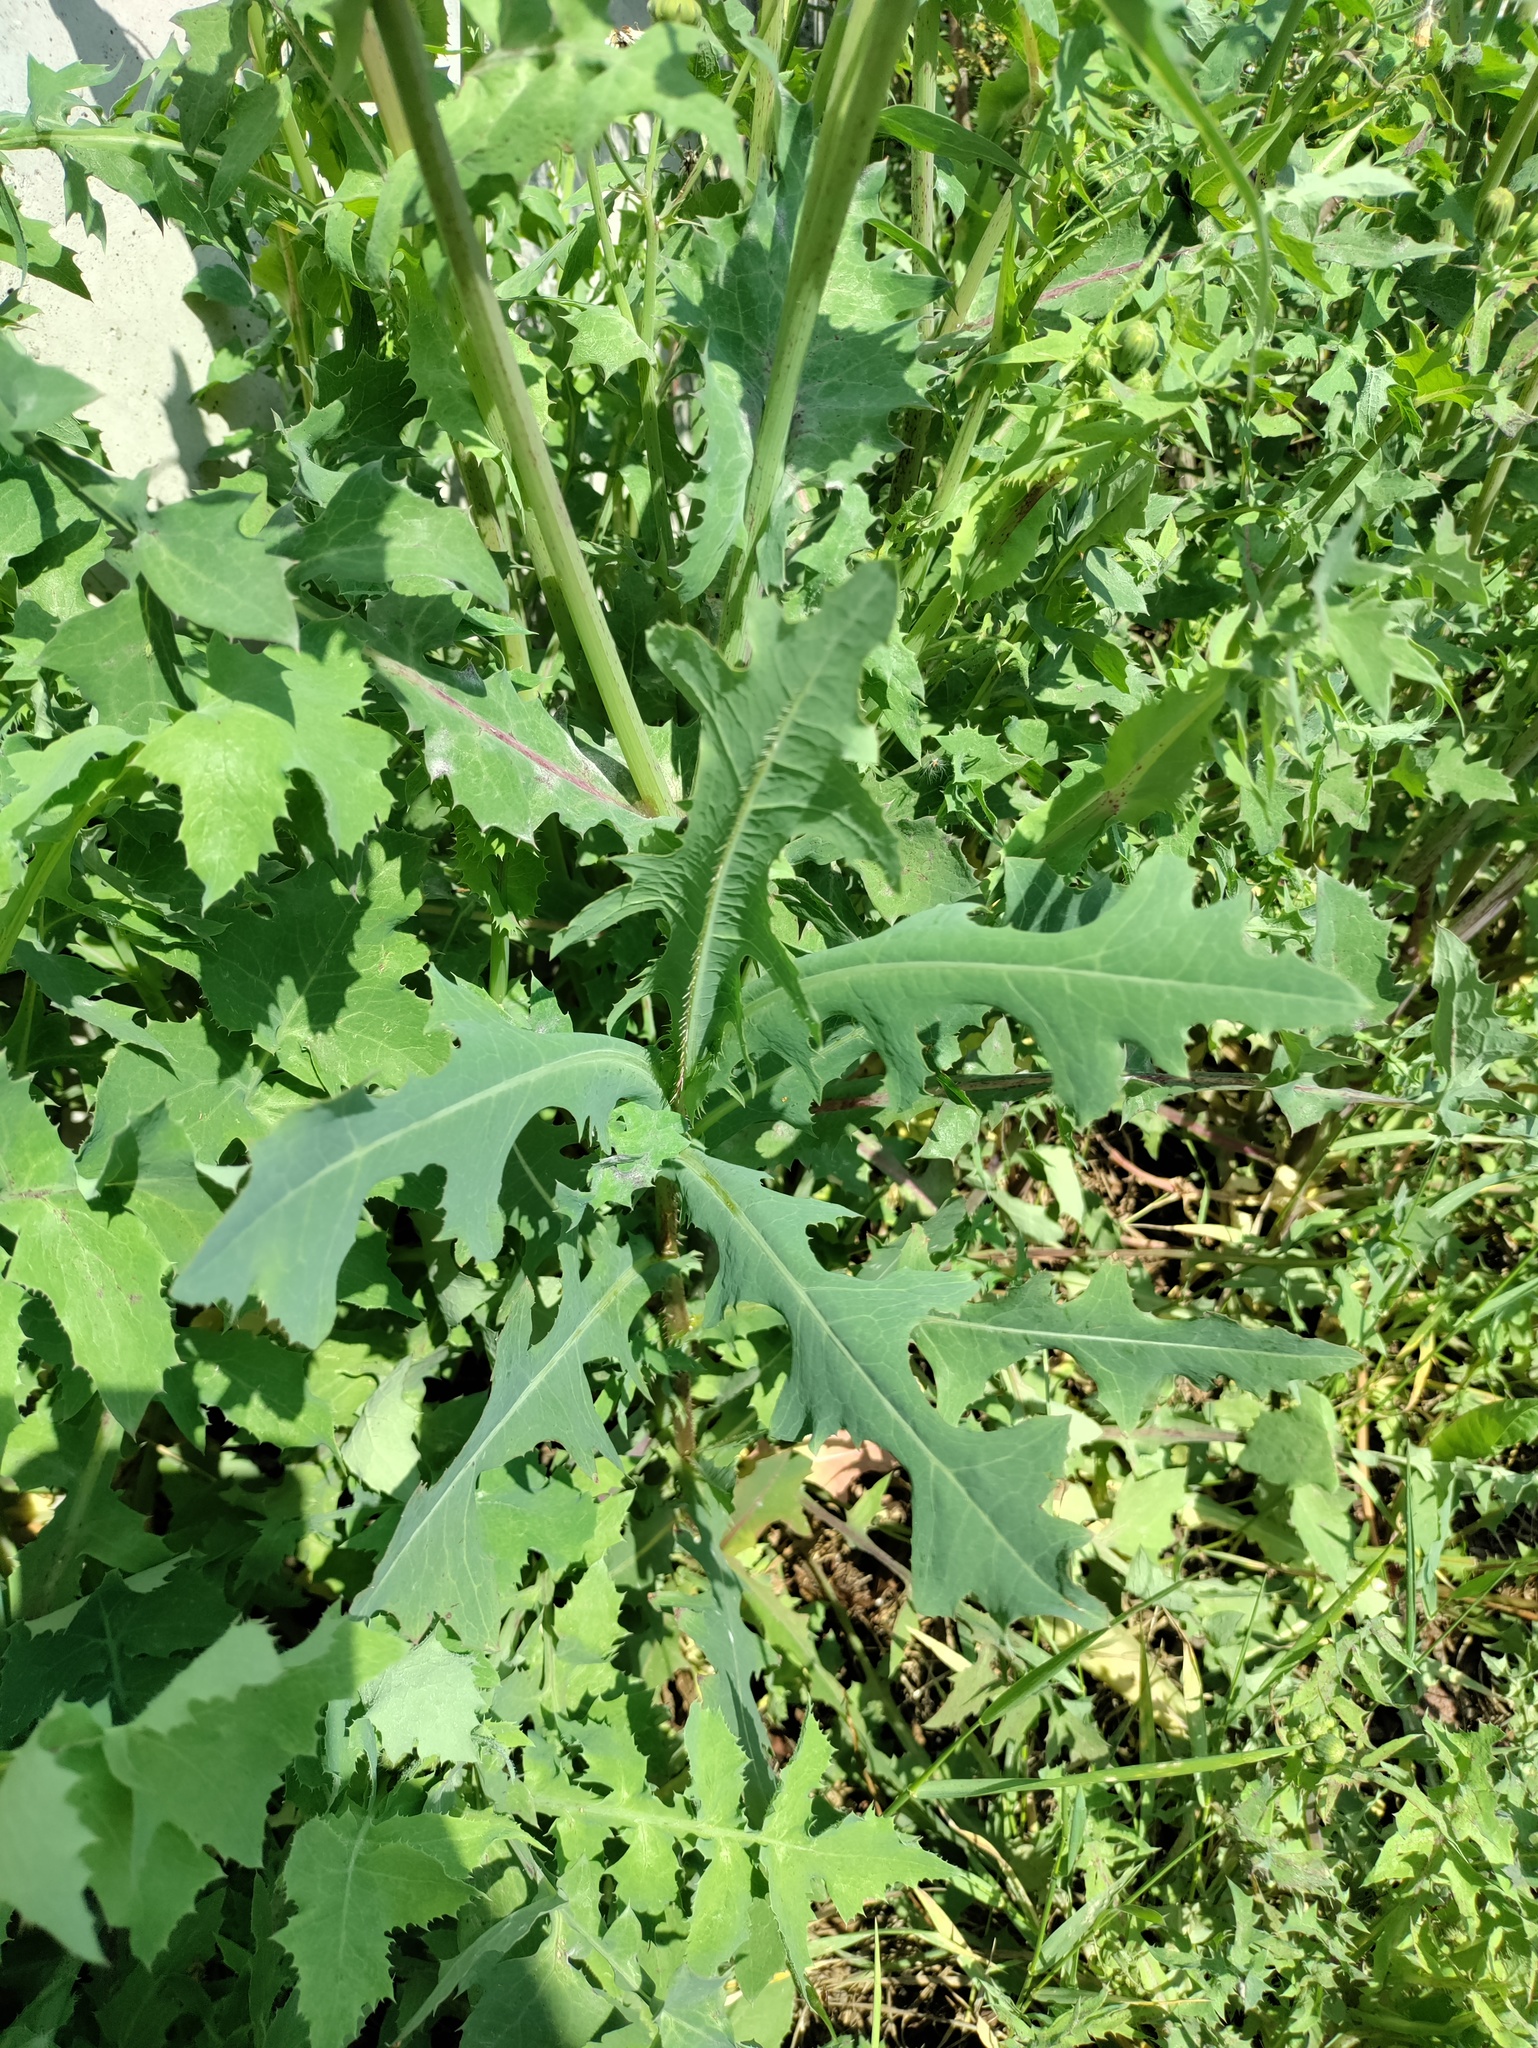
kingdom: Plantae
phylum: Tracheophyta
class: Magnoliopsida
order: Asterales
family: Asteraceae
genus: Lactuca
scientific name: Lactuca serriola
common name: Prickly lettuce
